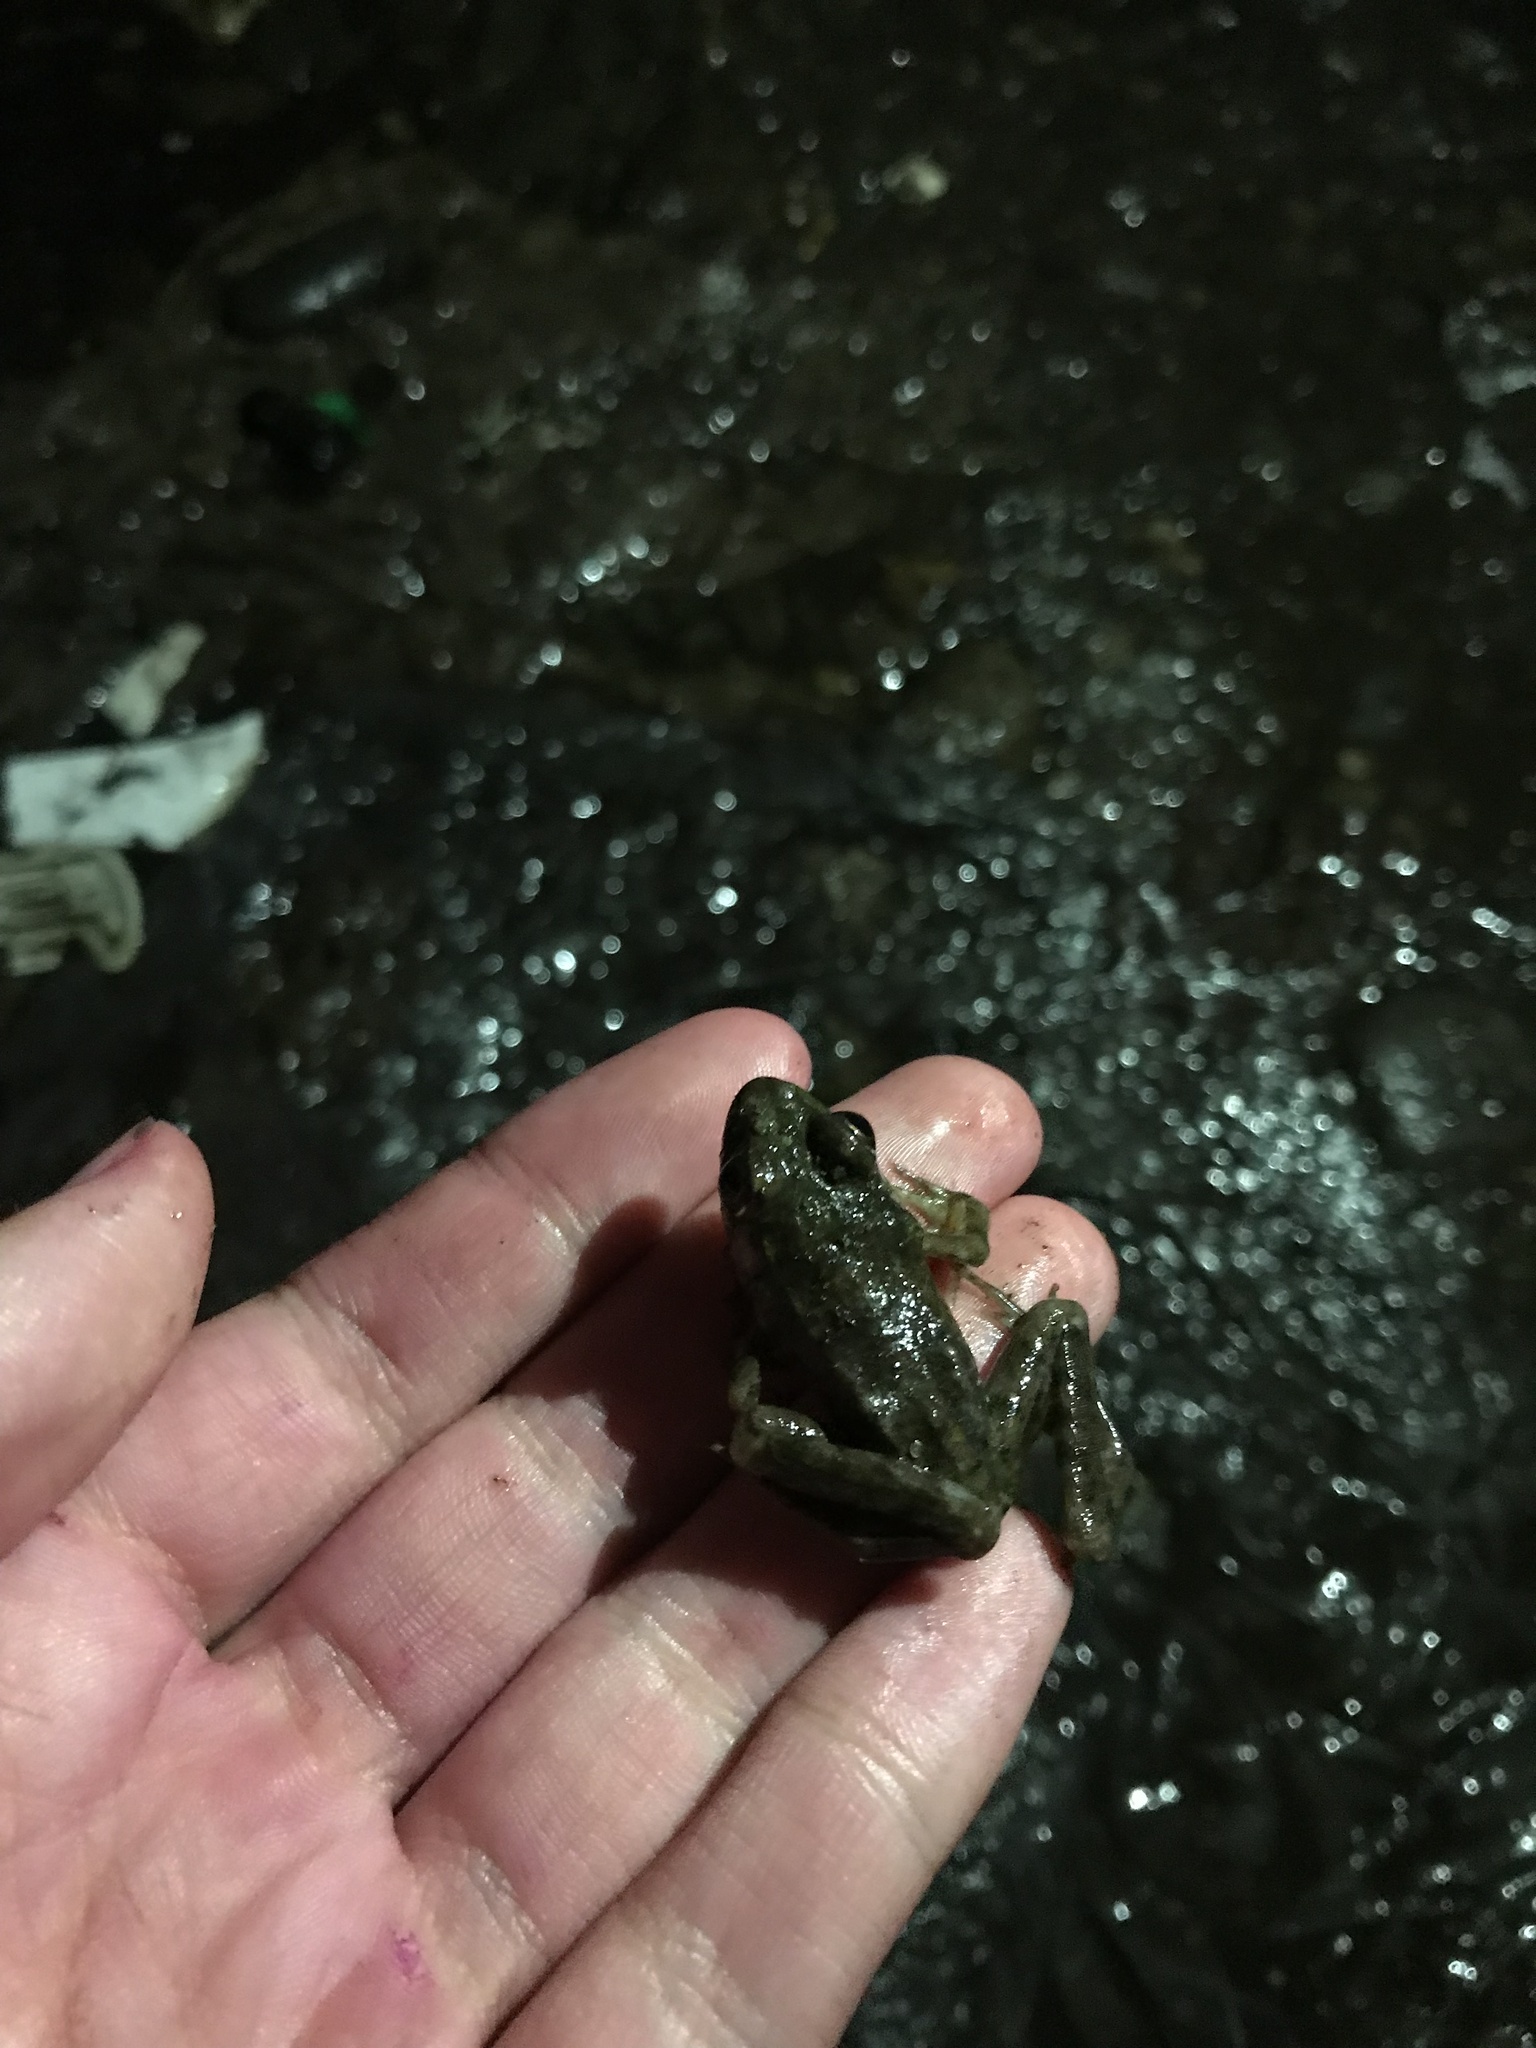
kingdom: Animalia
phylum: Chordata
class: Amphibia
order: Anura
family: Ranidae
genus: Lithobates
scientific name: Lithobates clamitans
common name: Green frog
